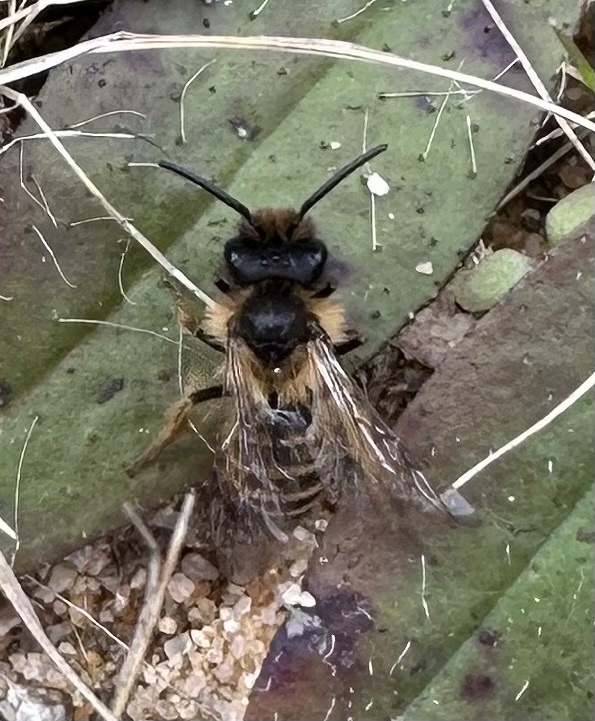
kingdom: Animalia
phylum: Arthropoda
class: Insecta
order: Hymenoptera
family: Andrenidae
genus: Andrena
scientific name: Andrena flavipes
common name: Yellow-legged mining bee
